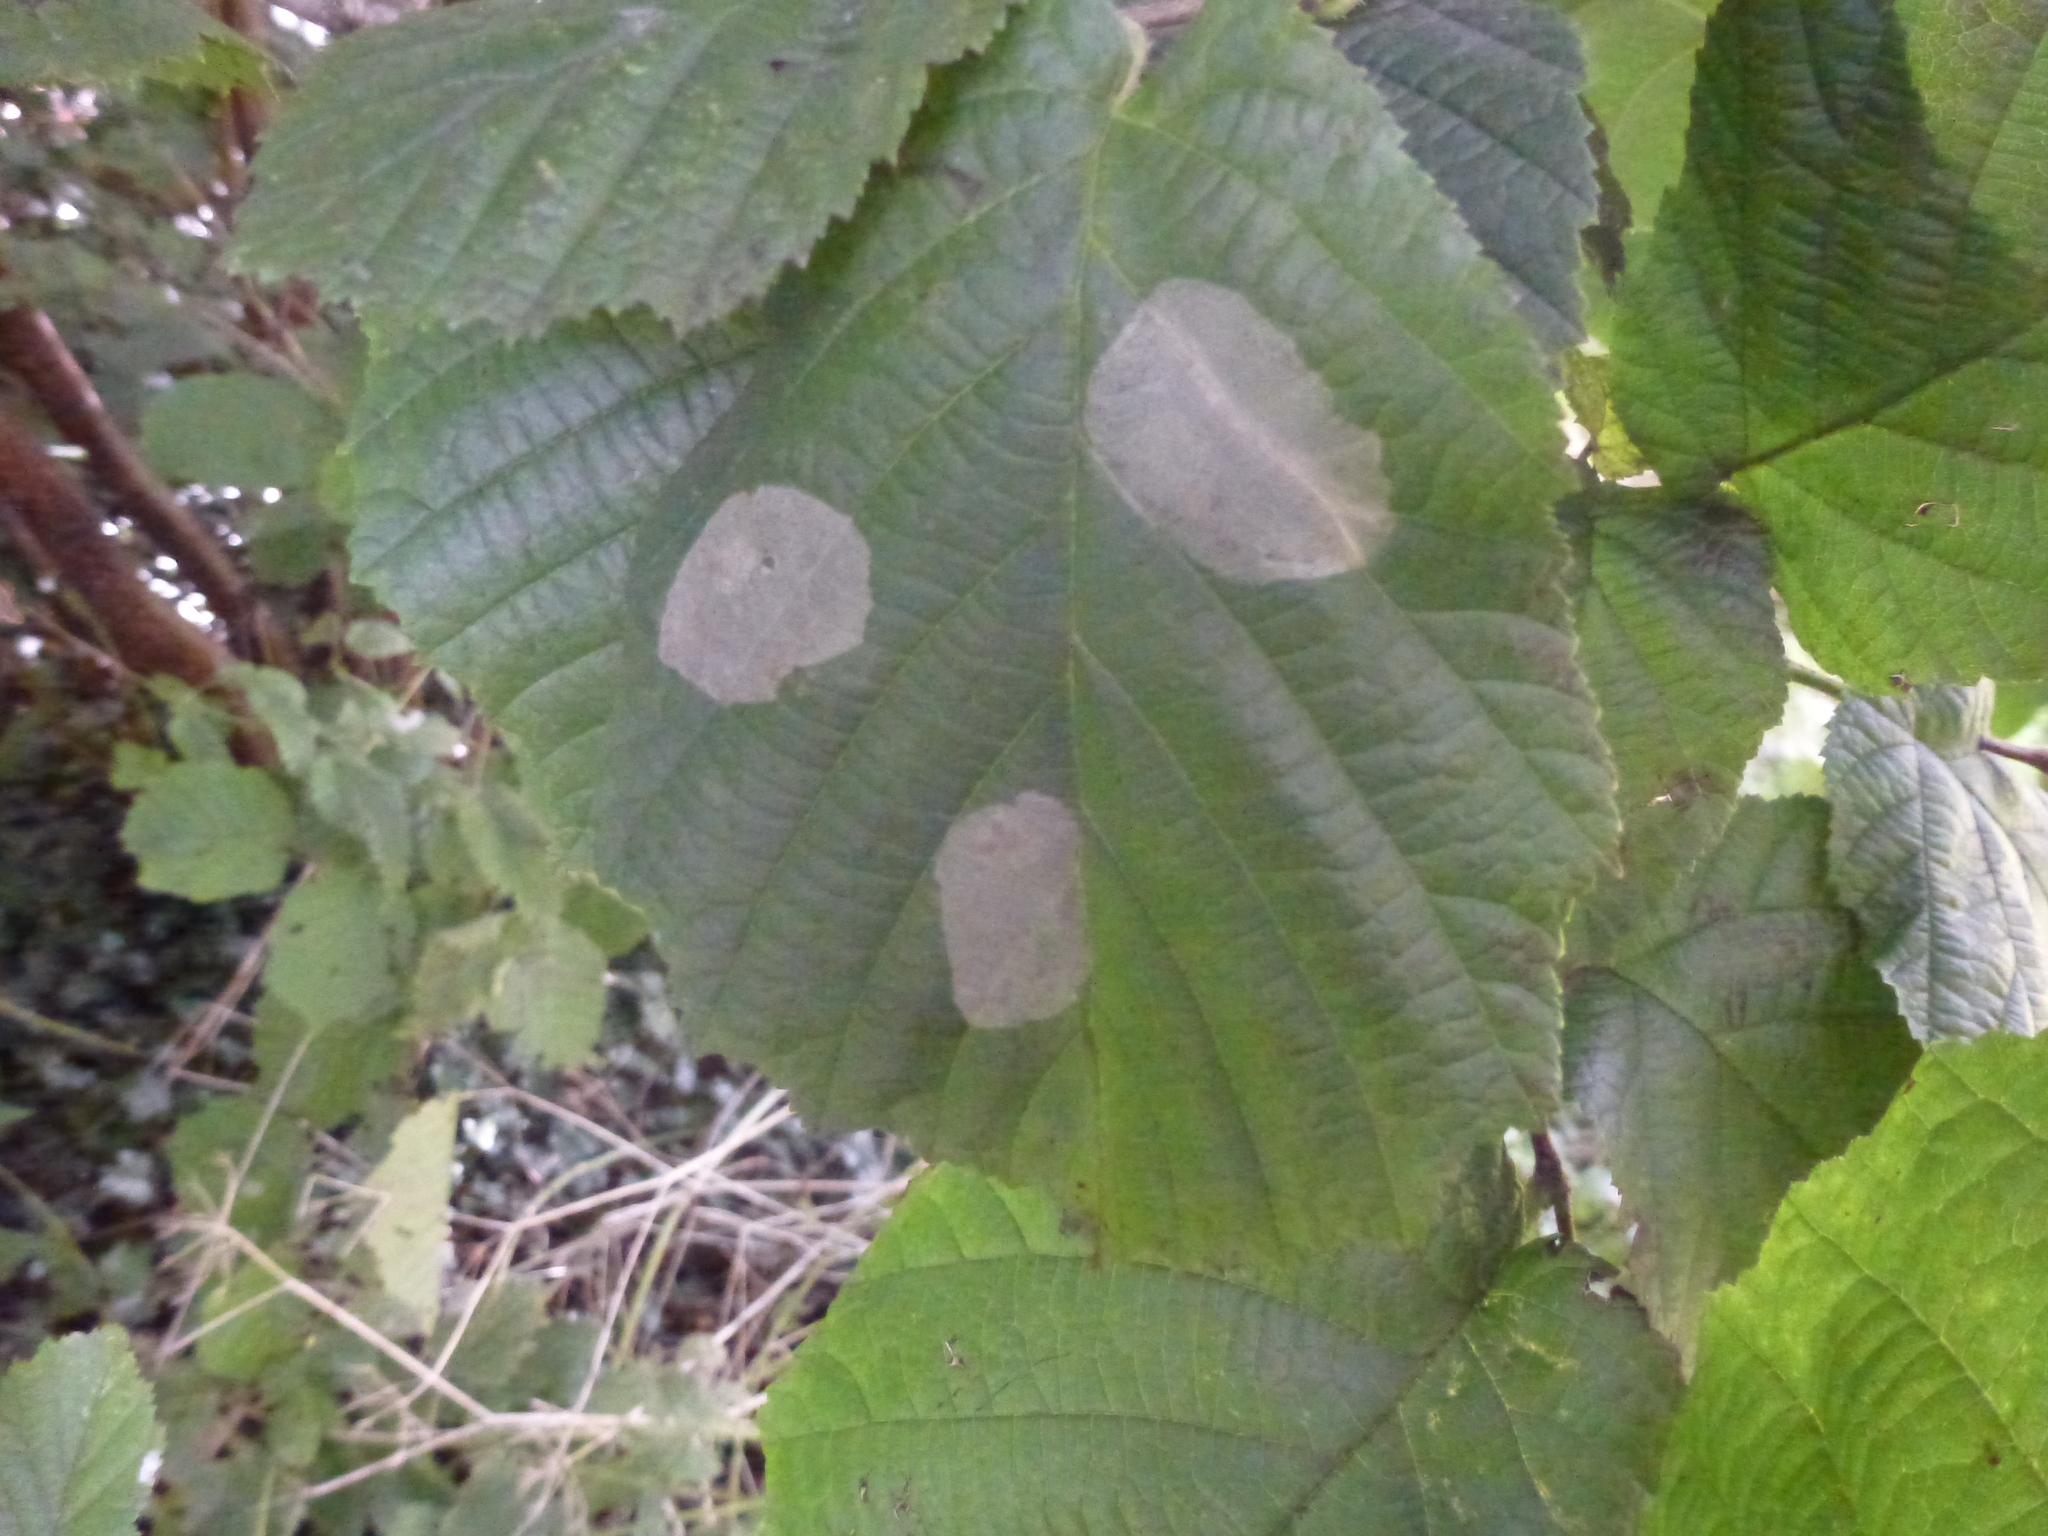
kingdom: Animalia
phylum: Arthropoda
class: Insecta
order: Lepidoptera
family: Gracillariidae
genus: Phyllonorycter
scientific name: Phyllonorycter coryli
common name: Nut-leaf blister moth
